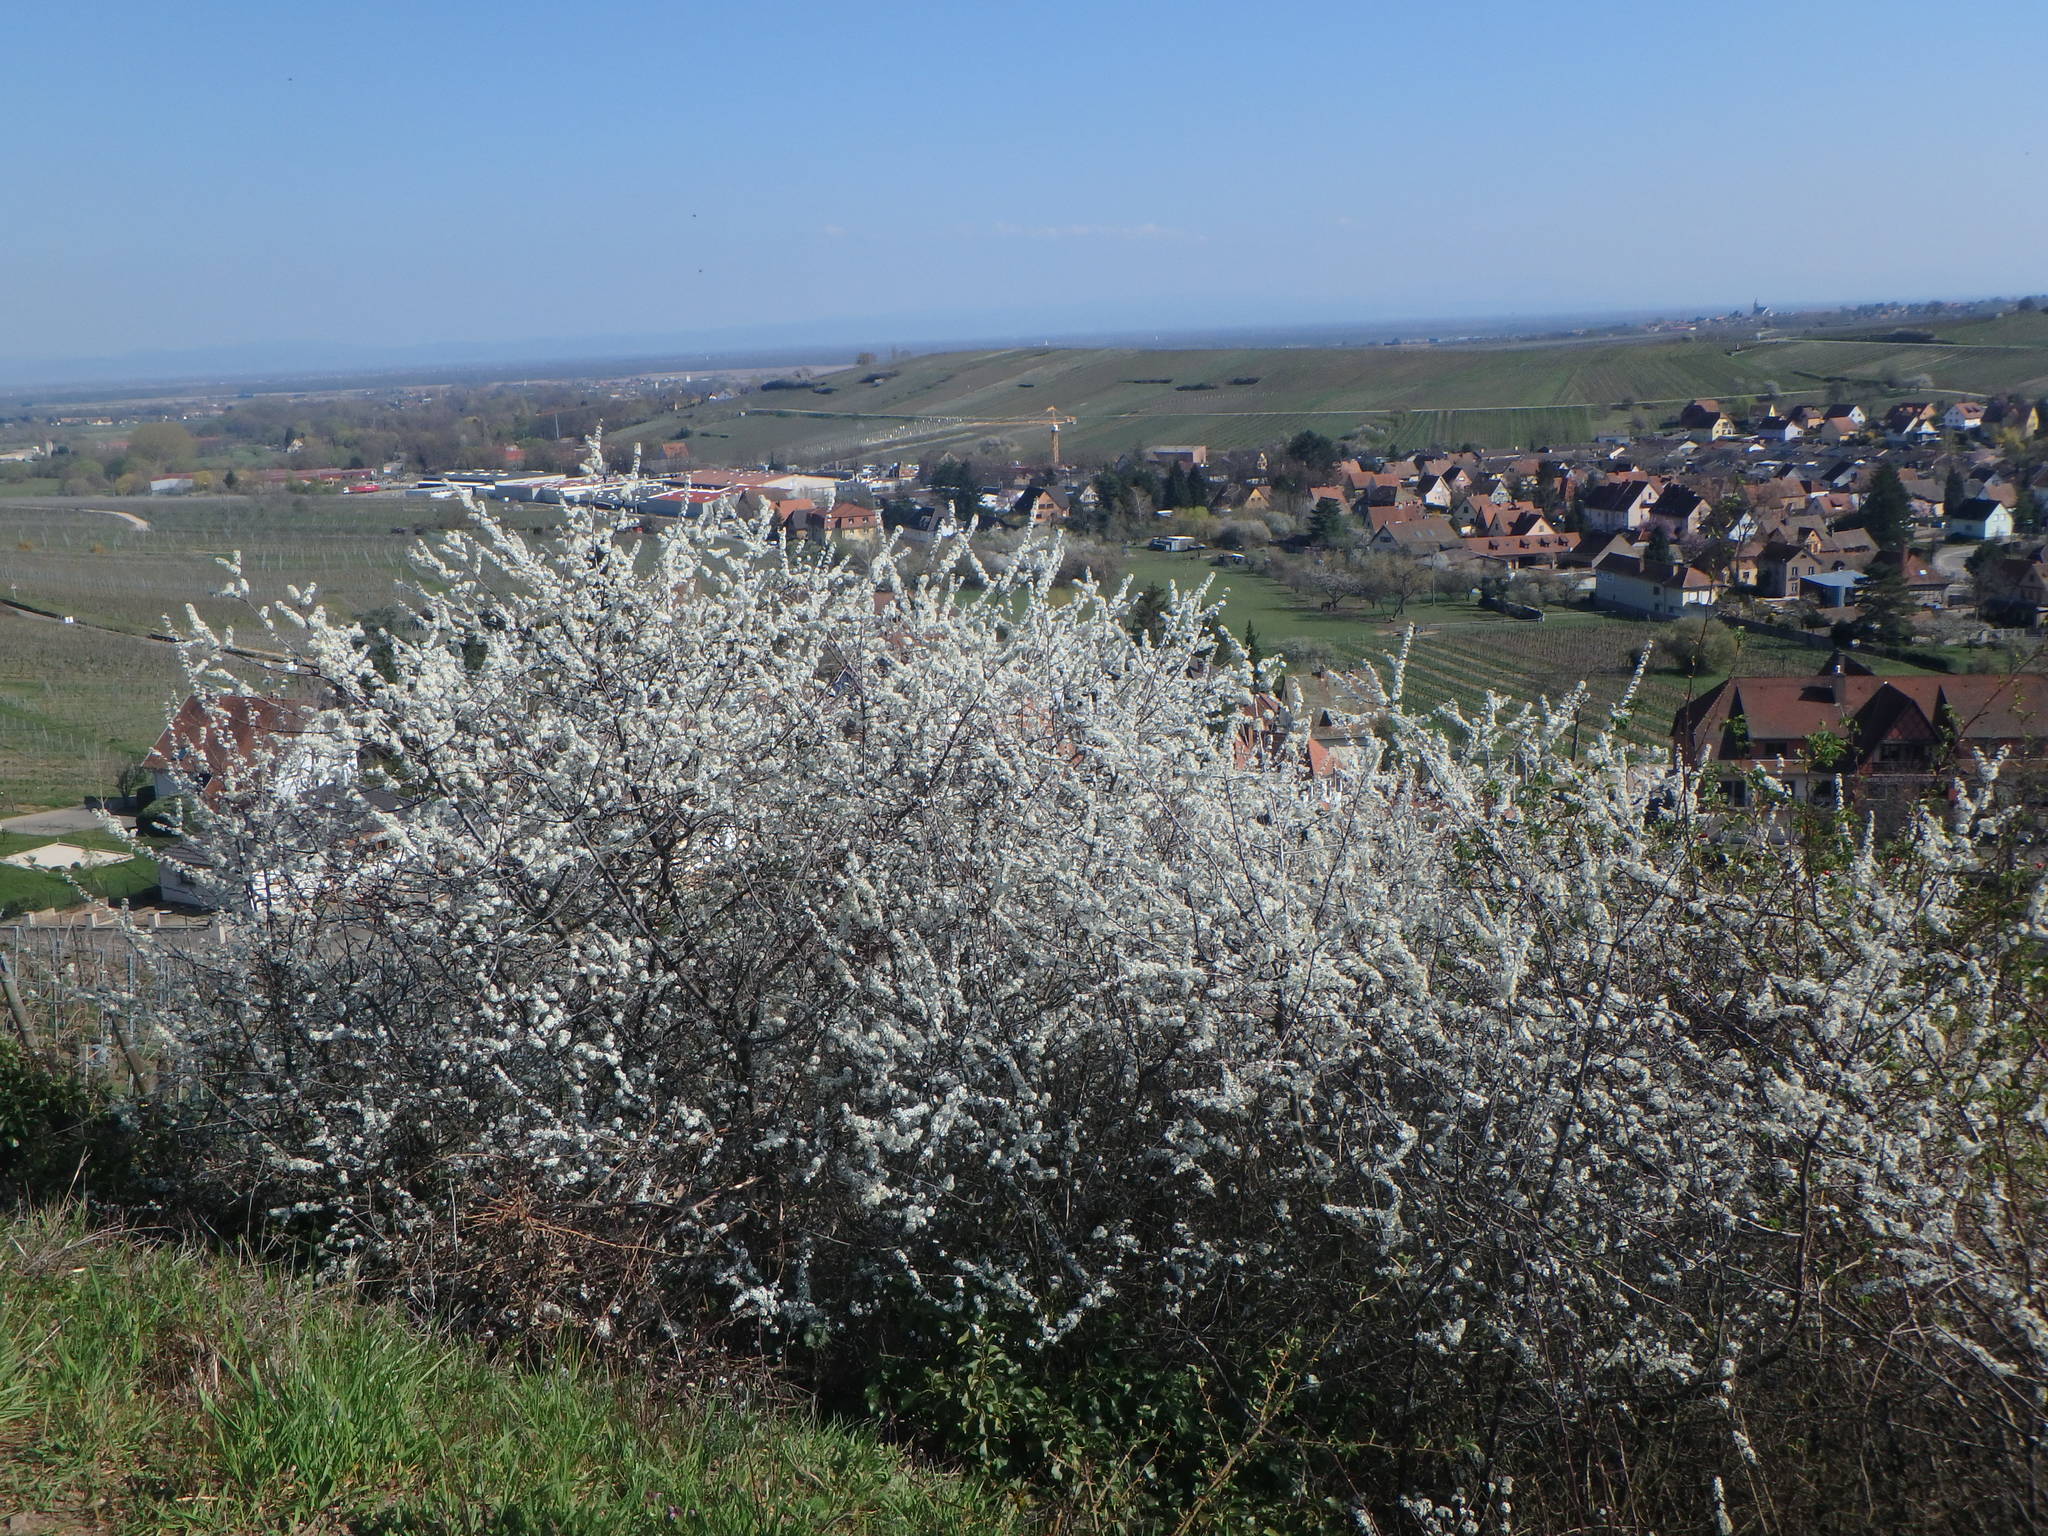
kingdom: Plantae
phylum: Tracheophyta
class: Magnoliopsida
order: Rosales
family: Rosaceae
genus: Prunus
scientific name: Prunus spinosa
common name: Blackthorn
